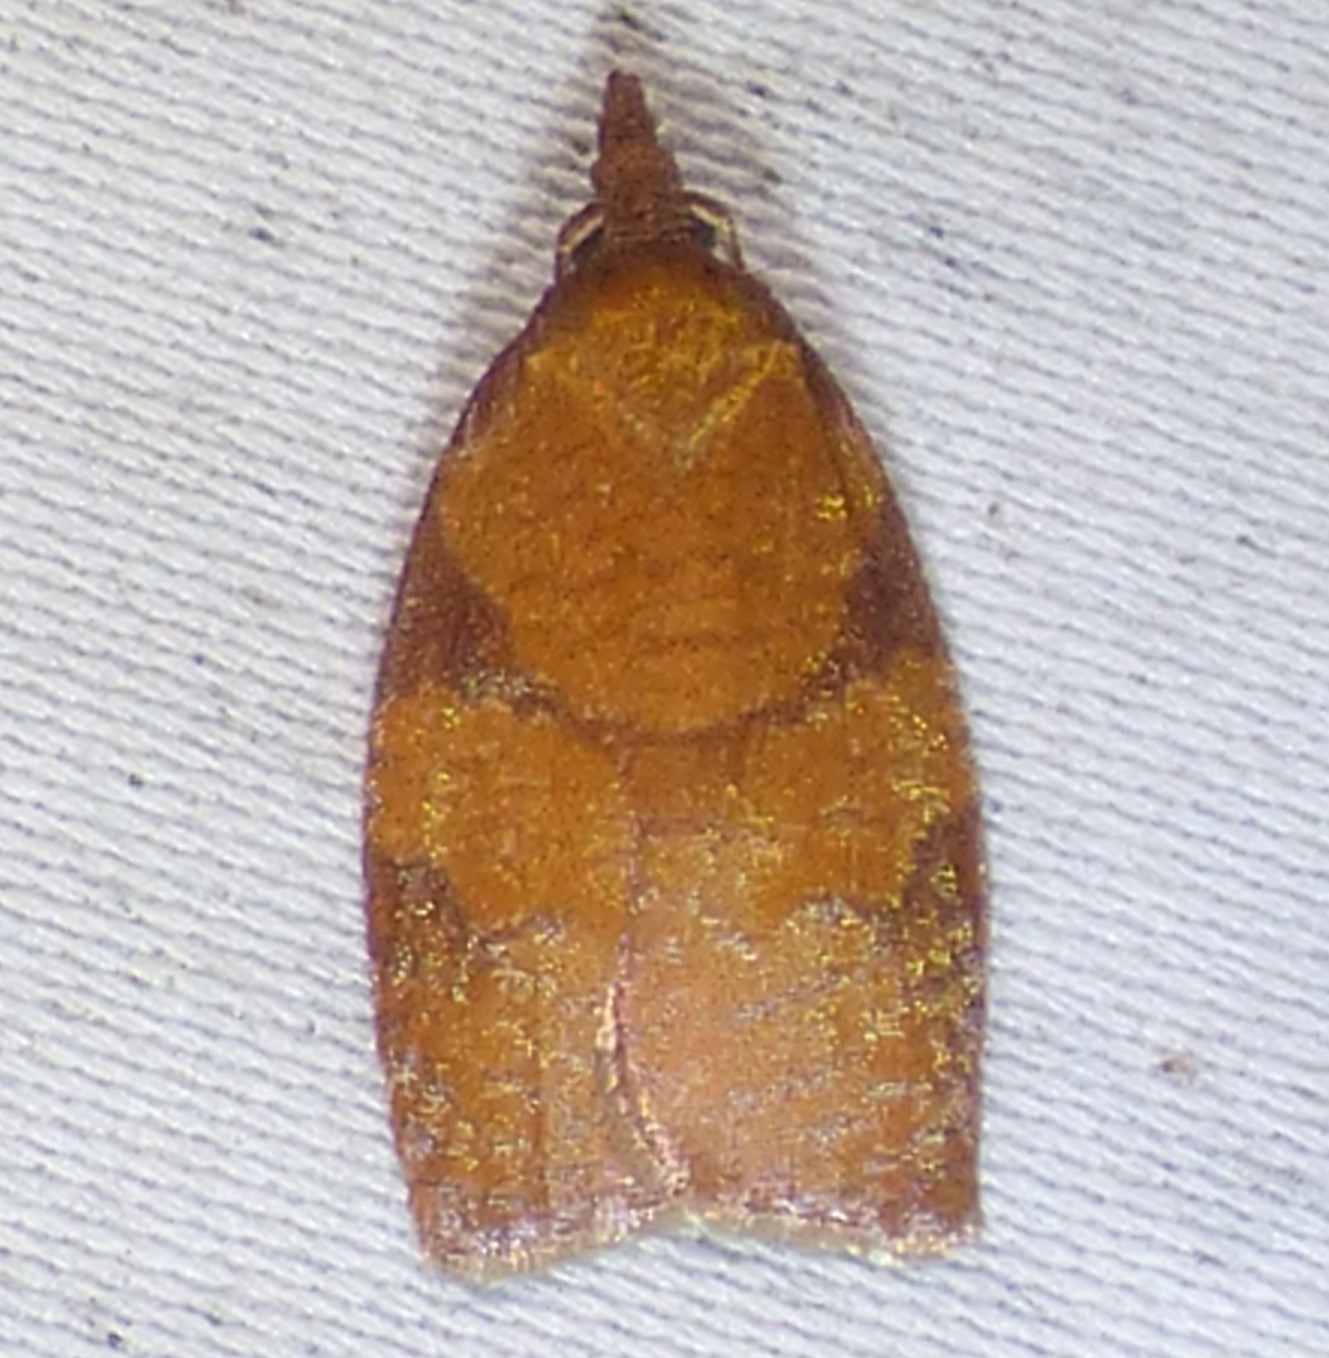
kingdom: Animalia
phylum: Arthropoda
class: Insecta
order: Lepidoptera
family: Tortricidae
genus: Cenopis
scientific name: Cenopis directana
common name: Chokecherry leafroller moth
